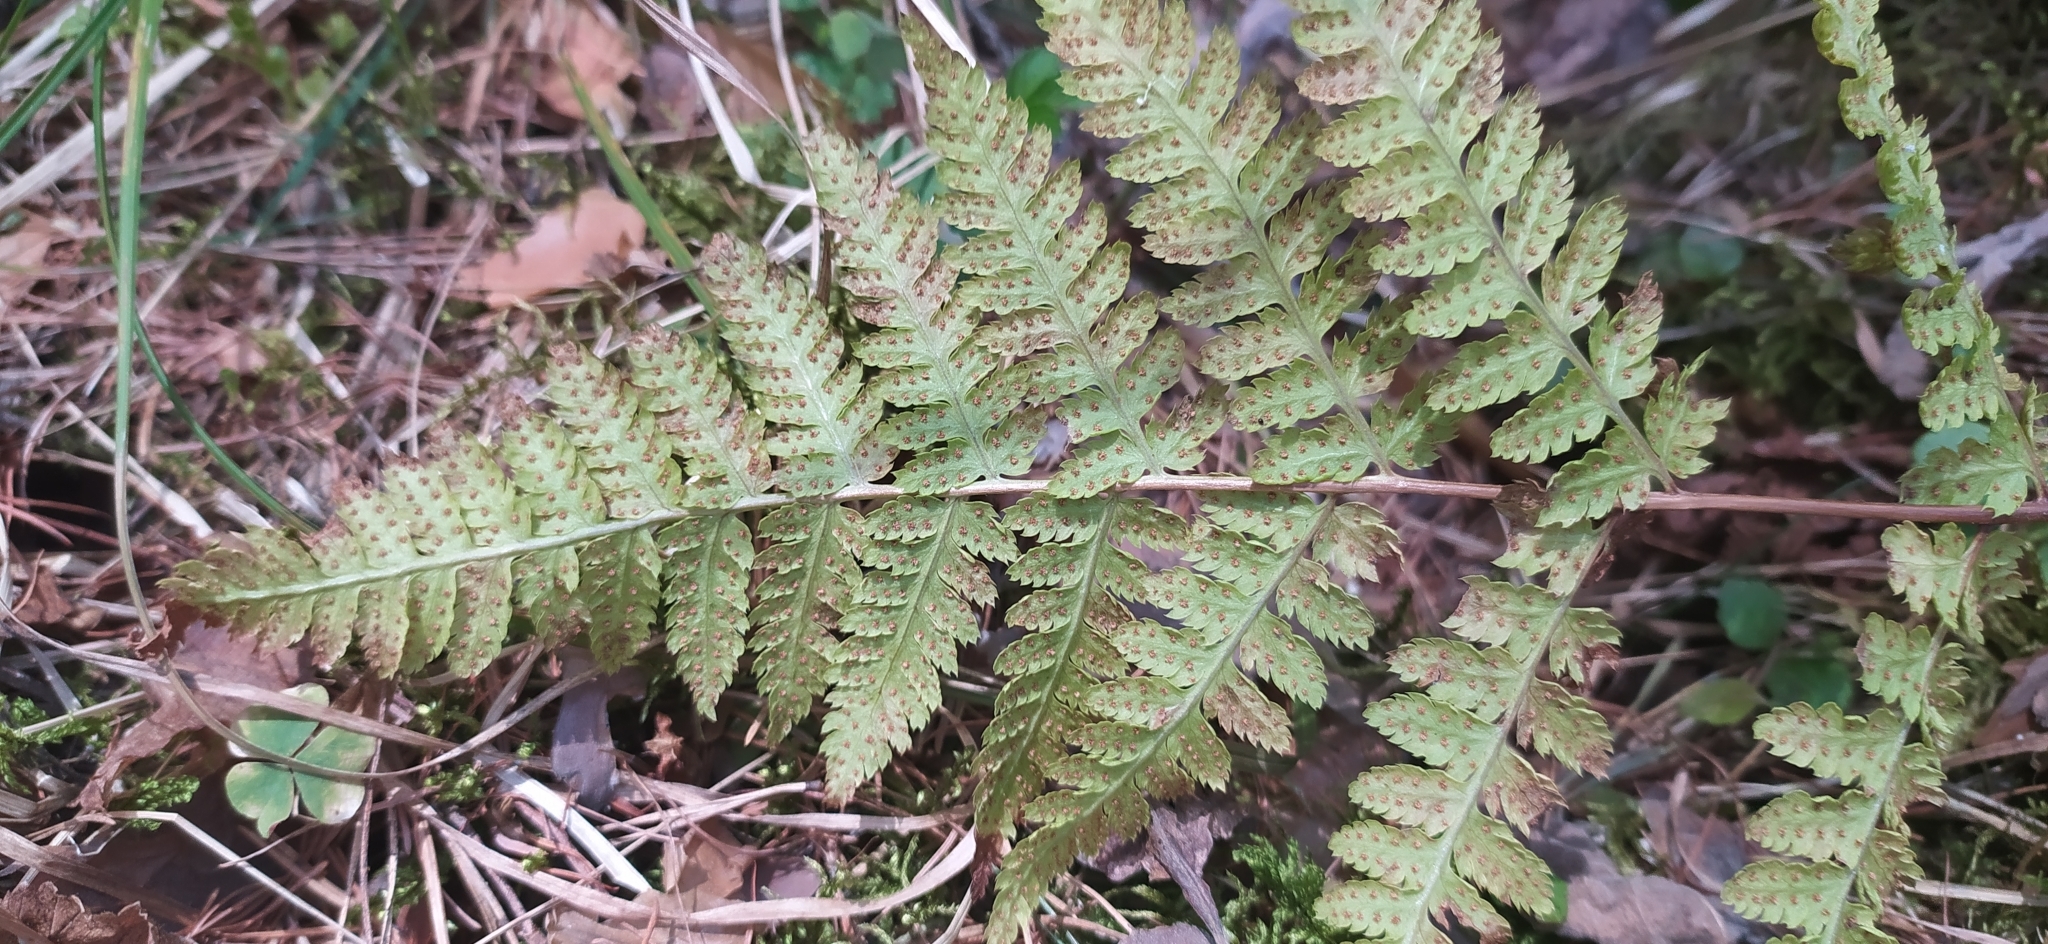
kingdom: Plantae
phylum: Tracheophyta
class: Polypodiopsida
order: Polypodiales
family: Dryopteridaceae
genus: Dryopteris
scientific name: Dryopteris carthusiana
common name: Narrow buckler-fern
